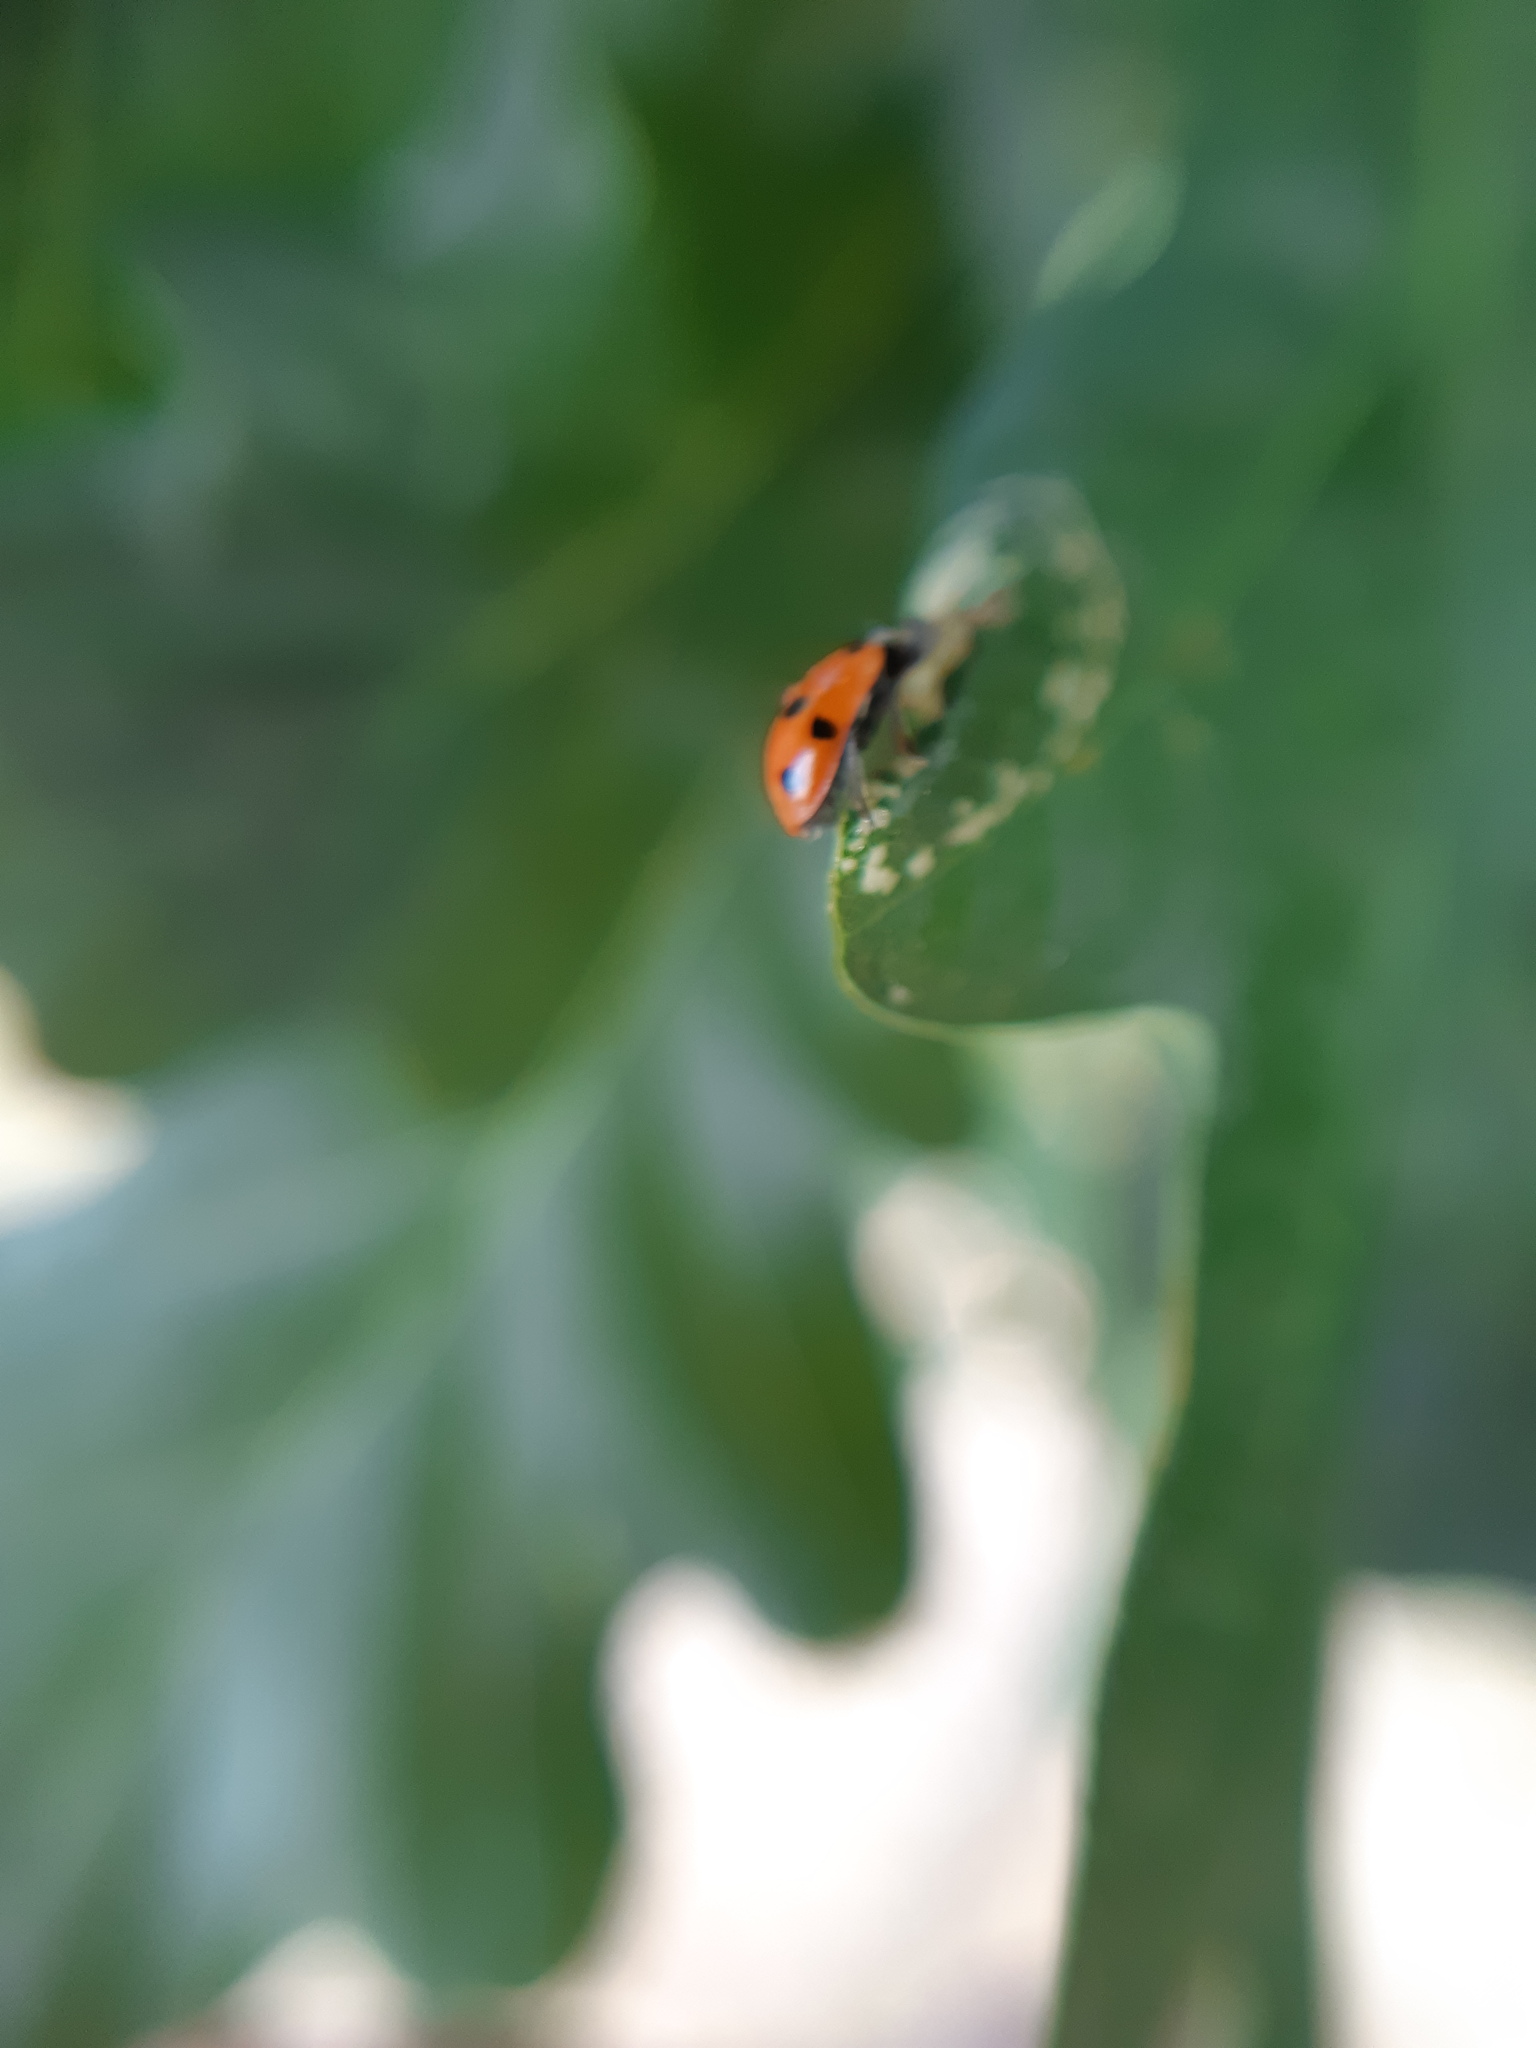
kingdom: Animalia
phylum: Arthropoda
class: Insecta
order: Coleoptera
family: Coccinellidae
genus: Hippodamia
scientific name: Hippodamia variegata
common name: Ladybird beetle
